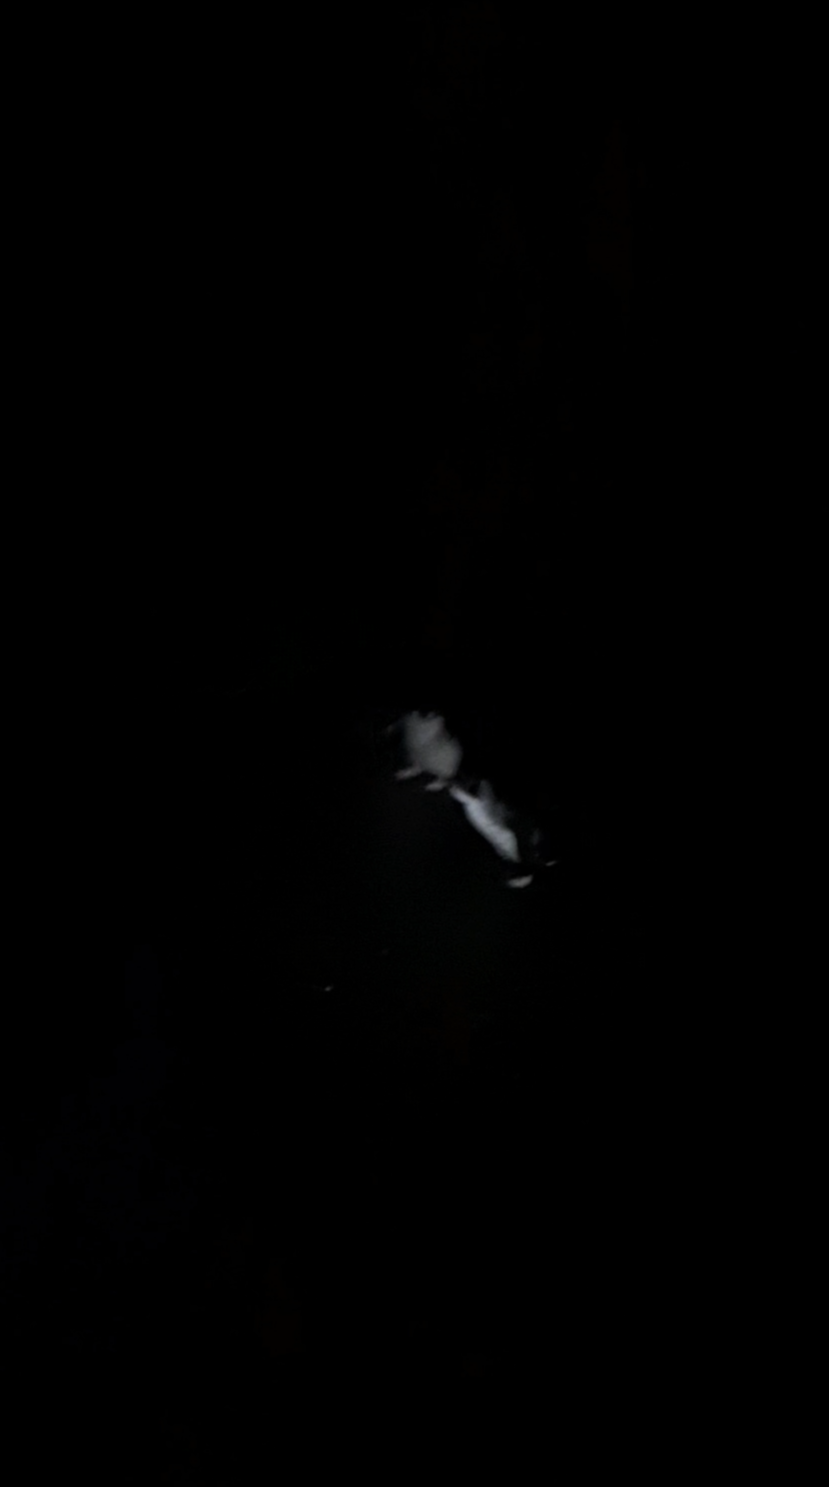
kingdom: Animalia
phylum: Chordata
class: Aves
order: Sphenisciformes
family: Spheniscidae
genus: Eudyptula
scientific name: Eudyptula minor
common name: Little penguin
